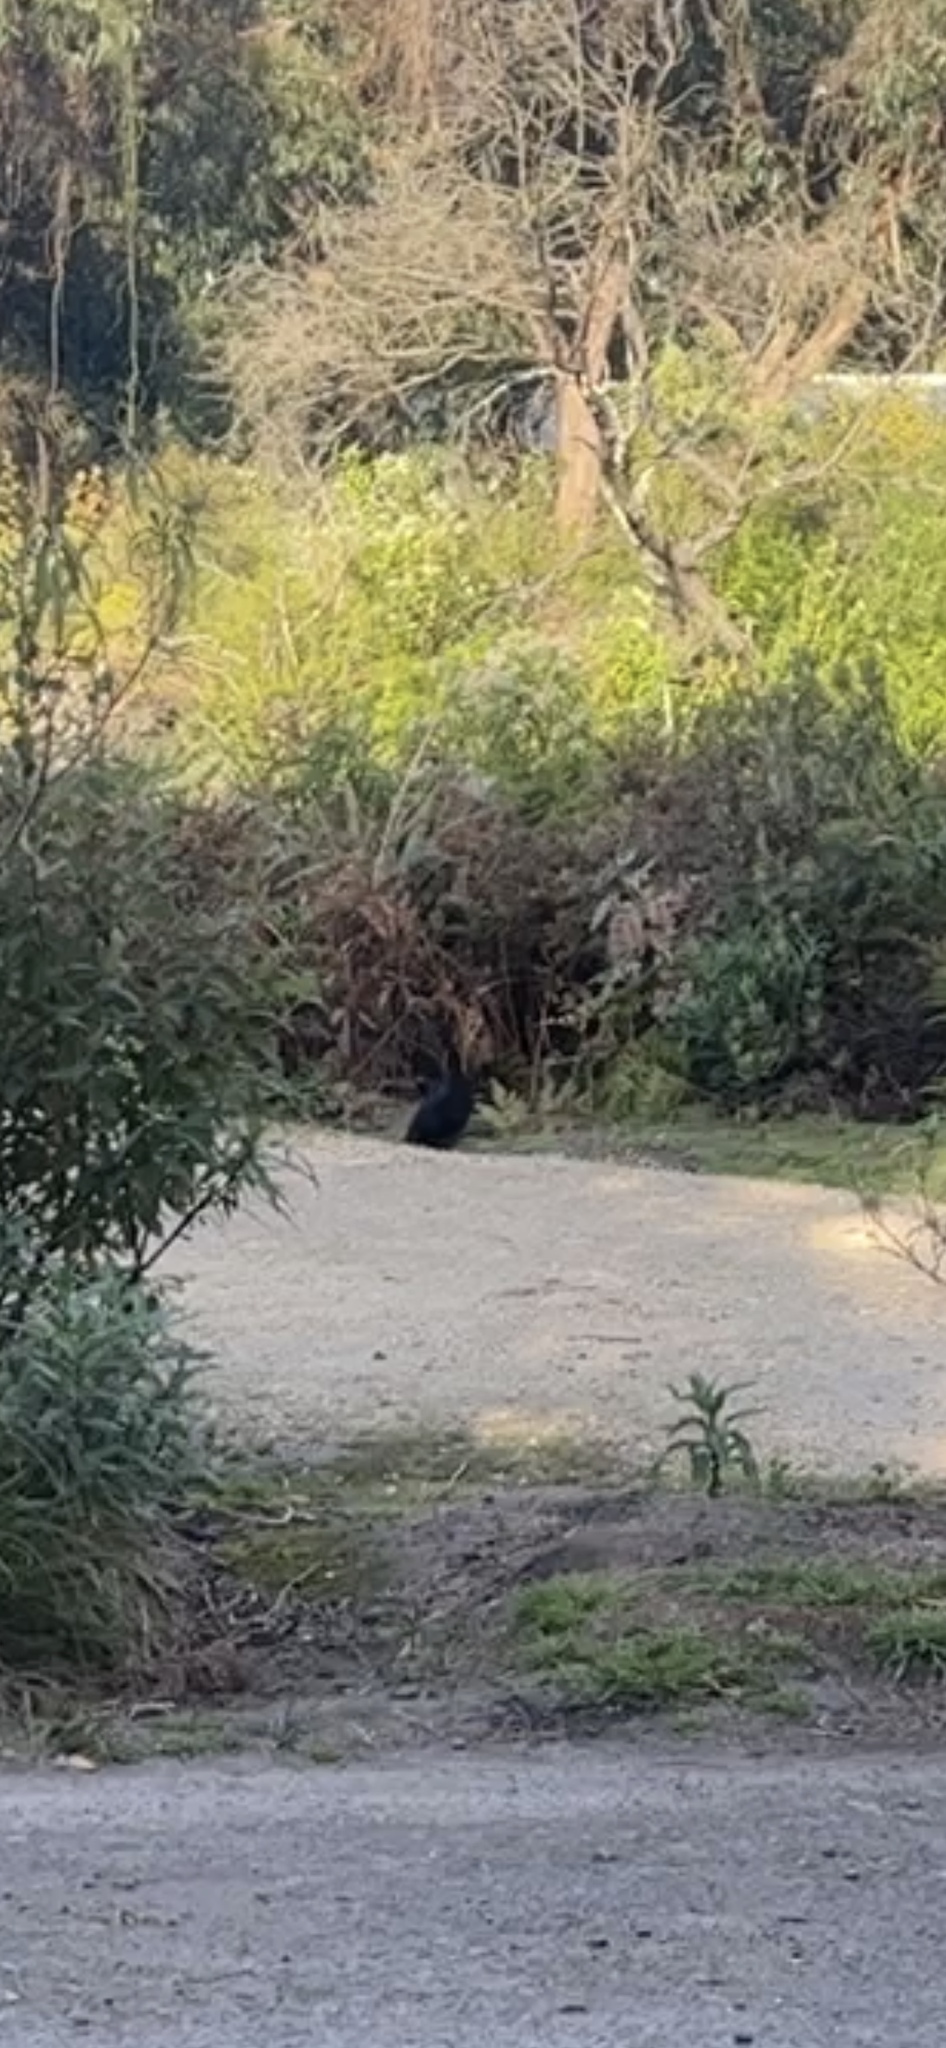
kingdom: Animalia
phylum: Chordata
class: Mammalia
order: Carnivora
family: Felidae
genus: Felis
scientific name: Felis catus
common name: Domestic cat
